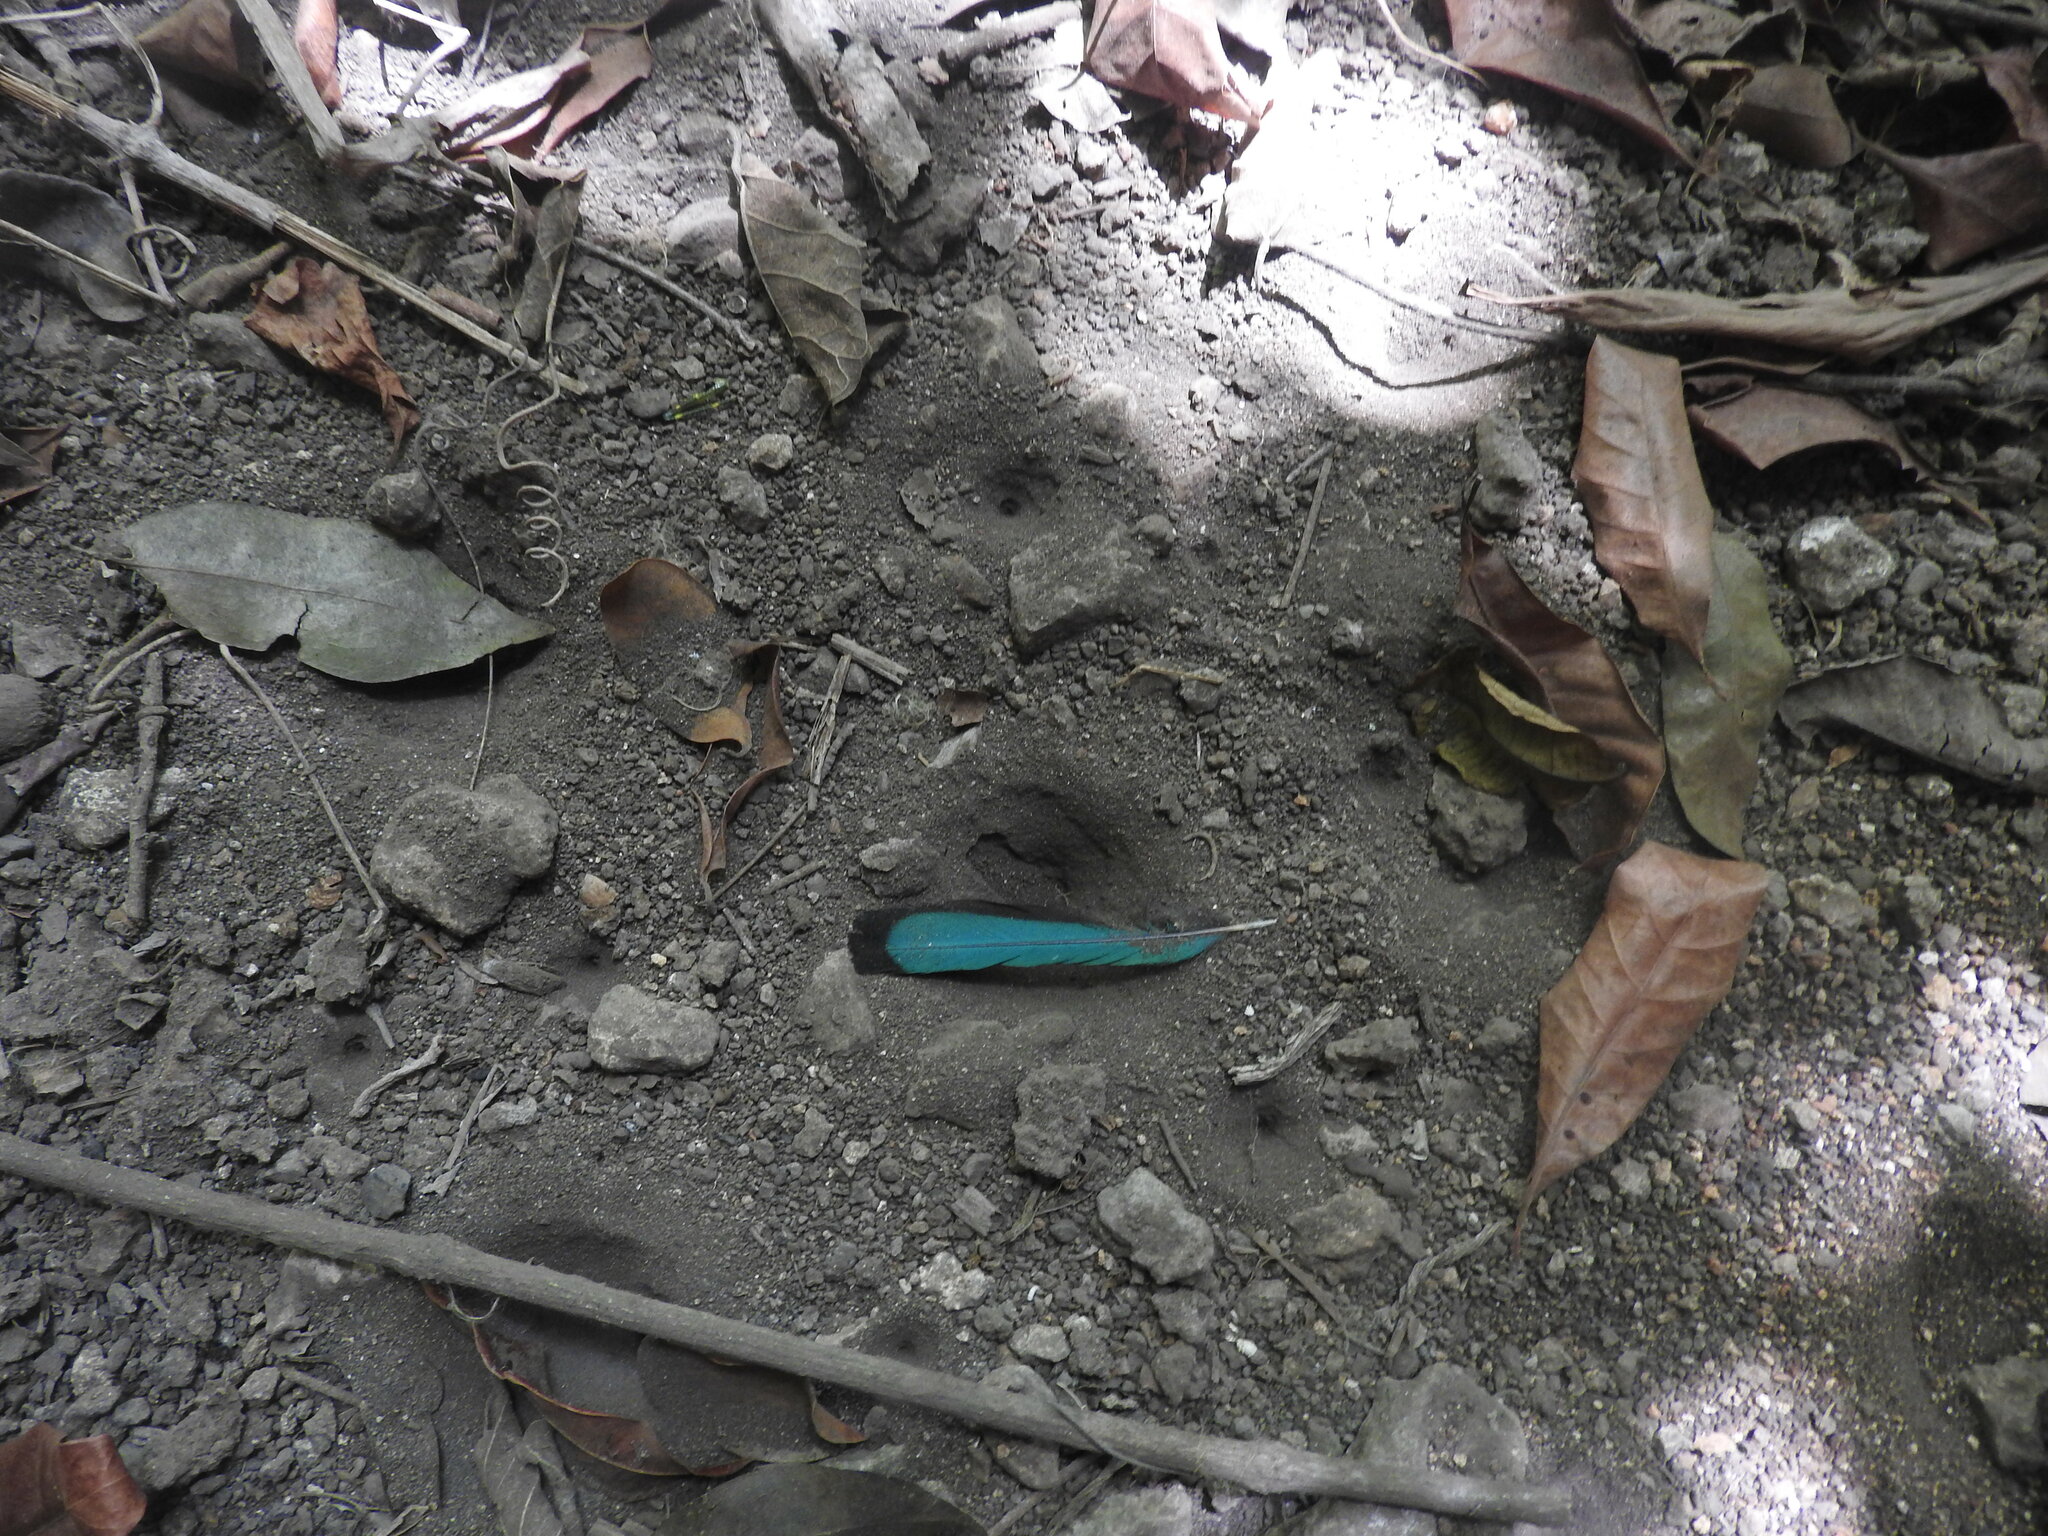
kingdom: Animalia
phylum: Chordata
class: Aves
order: Coraciiformes
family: Momotidae
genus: Eumomota
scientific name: Eumomota superciliosa
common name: Turquoise-browed motmot
